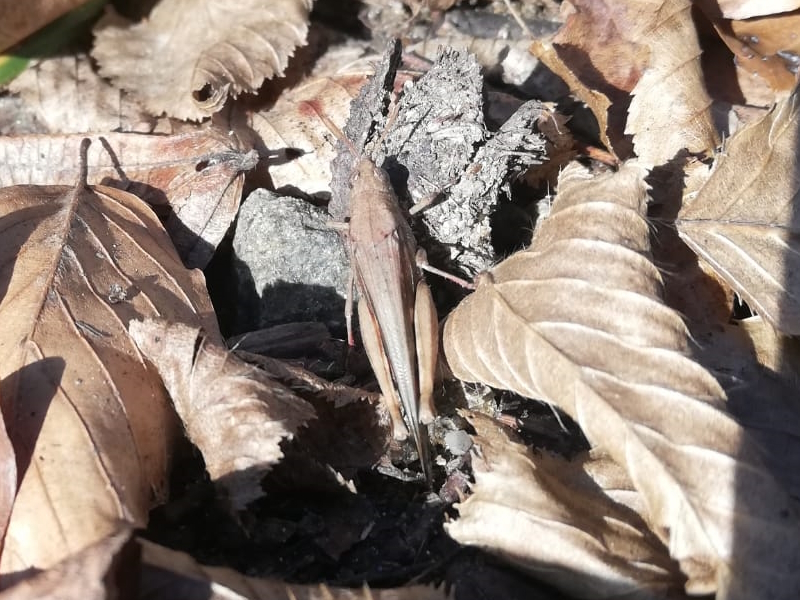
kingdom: Animalia
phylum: Arthropoda
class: Insecta
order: Orthoptera
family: Acrididae
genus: Aiolopus
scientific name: Aiolopus strepens
